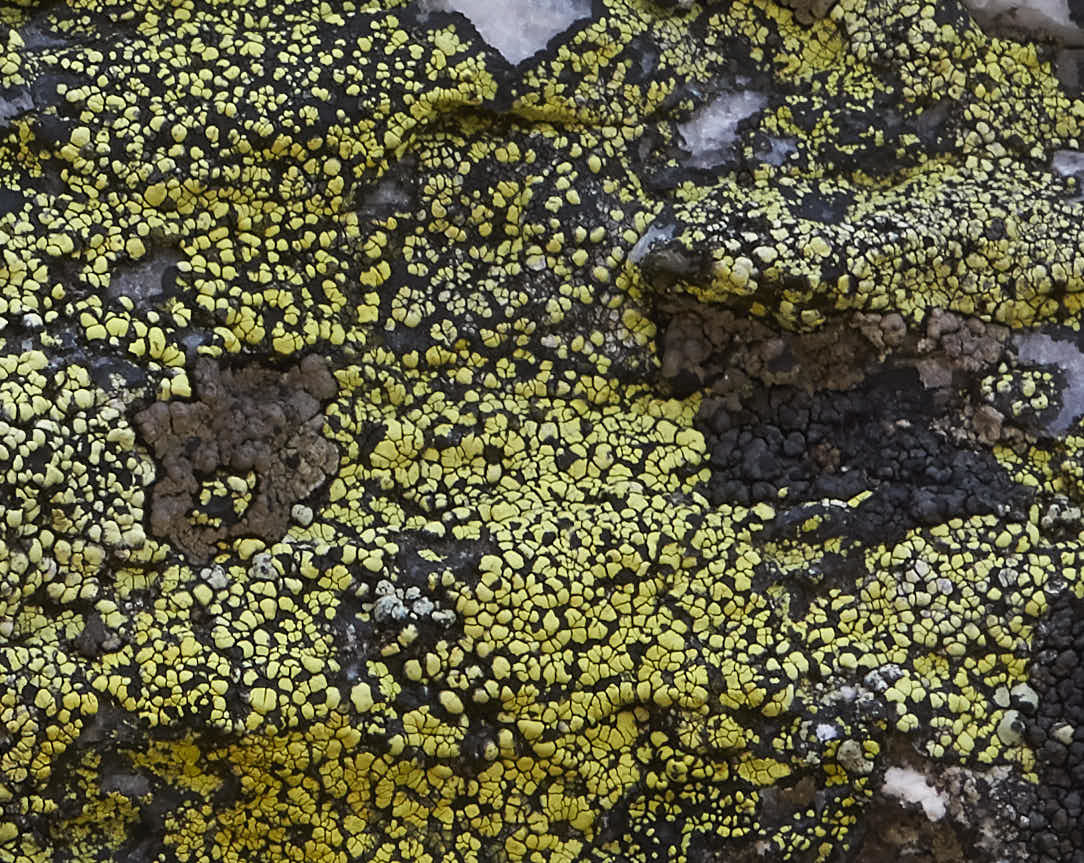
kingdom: Fungi
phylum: Ascomycota
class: Lecanoromycetes
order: Lecanorales
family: Parmeliaceae
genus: Protoparmelia
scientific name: Protoparmelia badia
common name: Chocolate rim lichen
